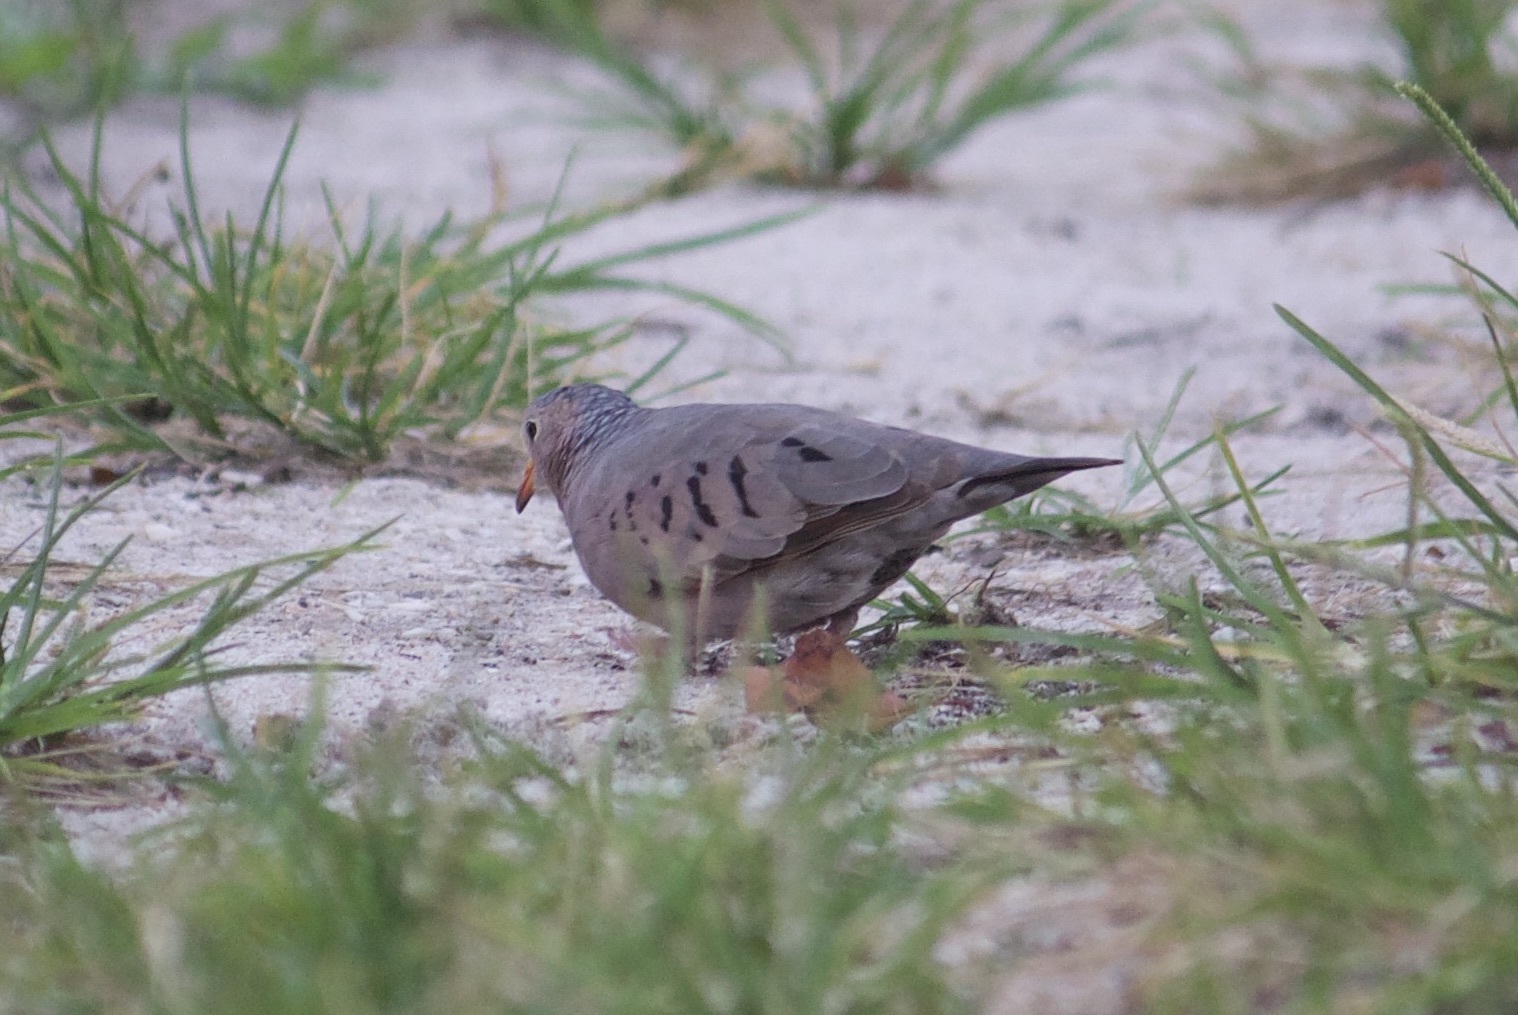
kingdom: Animalia
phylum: Chordata
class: Aves
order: Columbiformes
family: Columbidae
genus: Columbina
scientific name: Columbina passerina
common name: Common ground-dove
